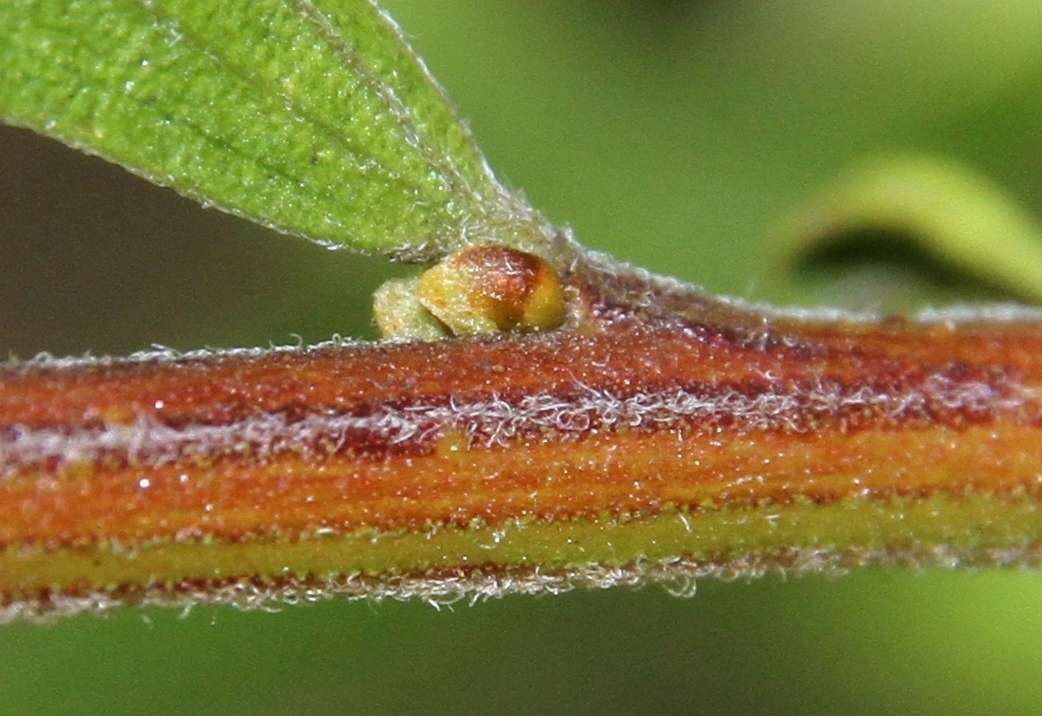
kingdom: Plantae
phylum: Tracheophyta
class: Magnoliopsida
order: Fabales
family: Fabaceae
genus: Acacia
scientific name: Acacia rostriformis
